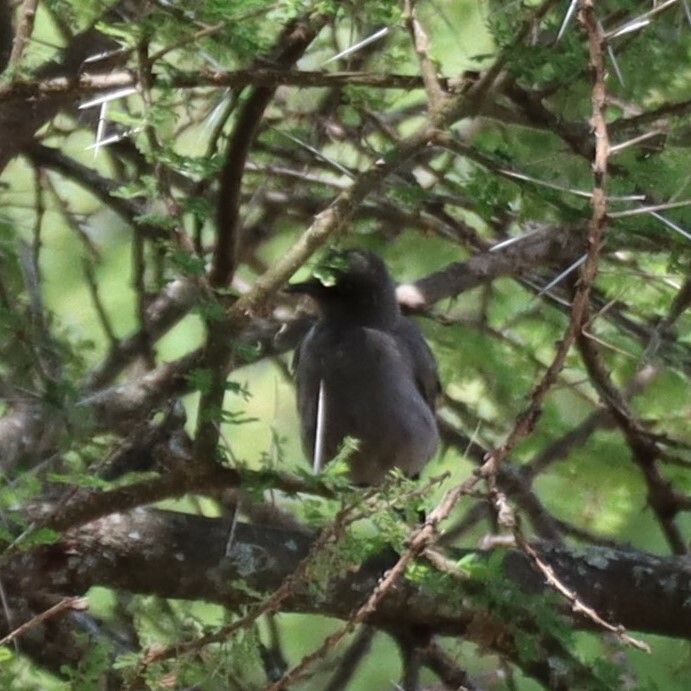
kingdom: Animalia
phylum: Chordata
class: Aves
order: Passeriformes
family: Malaconotidae
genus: Laniarius
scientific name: Laniarius funebris
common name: Slate-colored boubou
